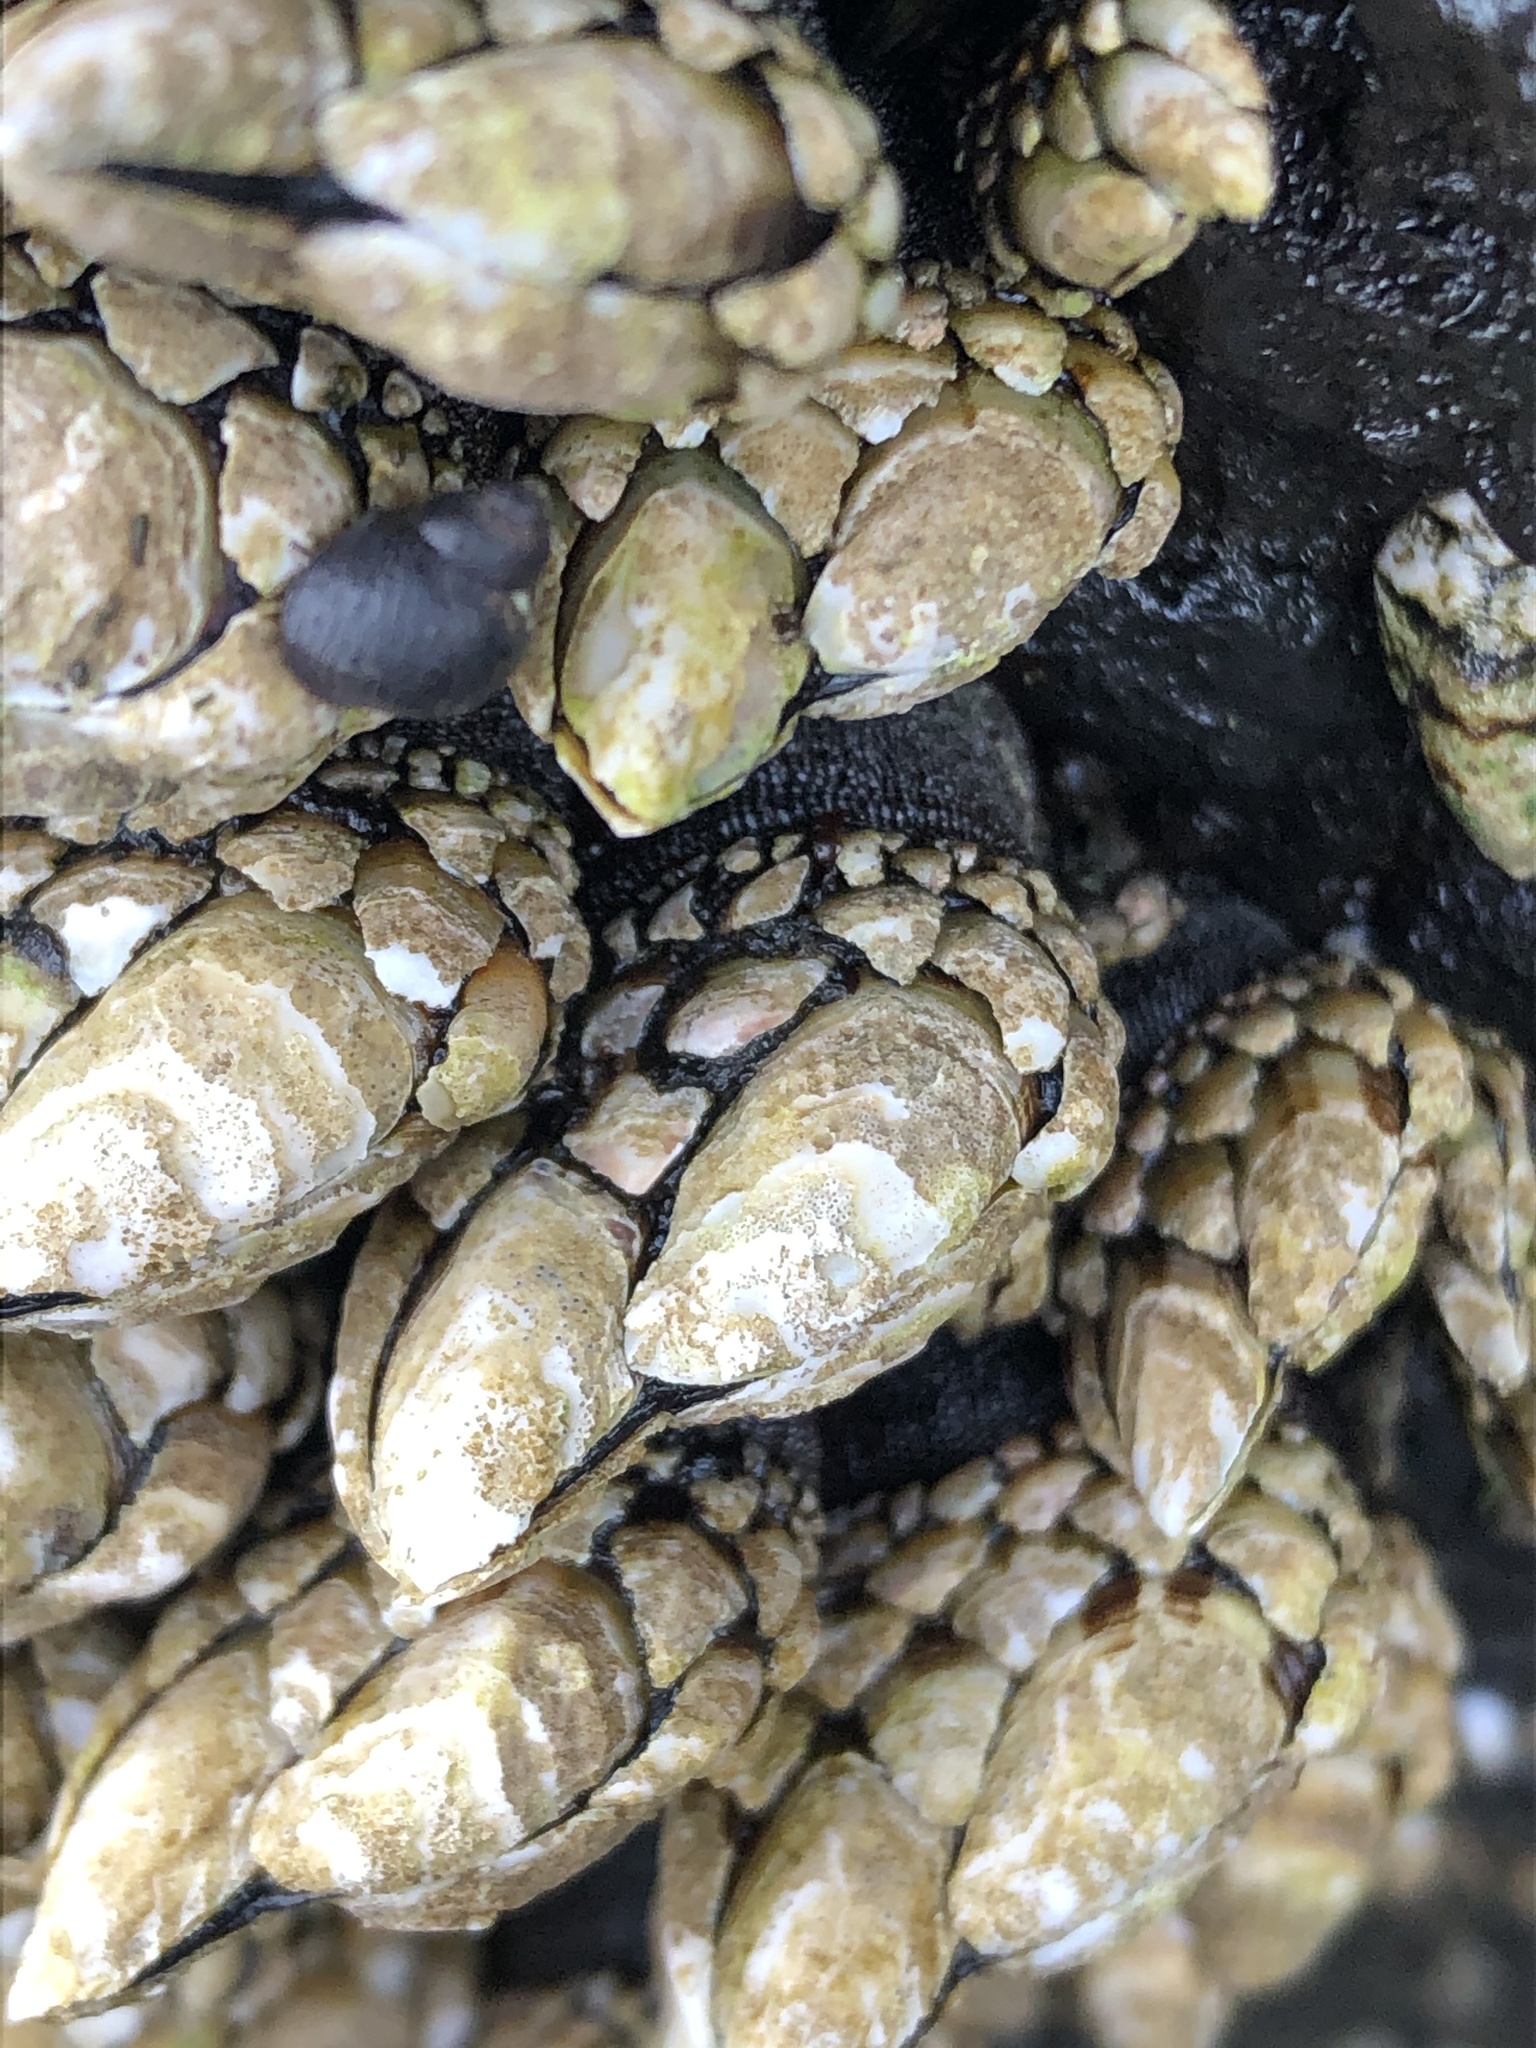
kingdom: Animalia
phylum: Arthropoda
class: Maxillopoda
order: Pedunculata
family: Pollicipedidae
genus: Pollicipes
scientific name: Pollicipes polymerus
